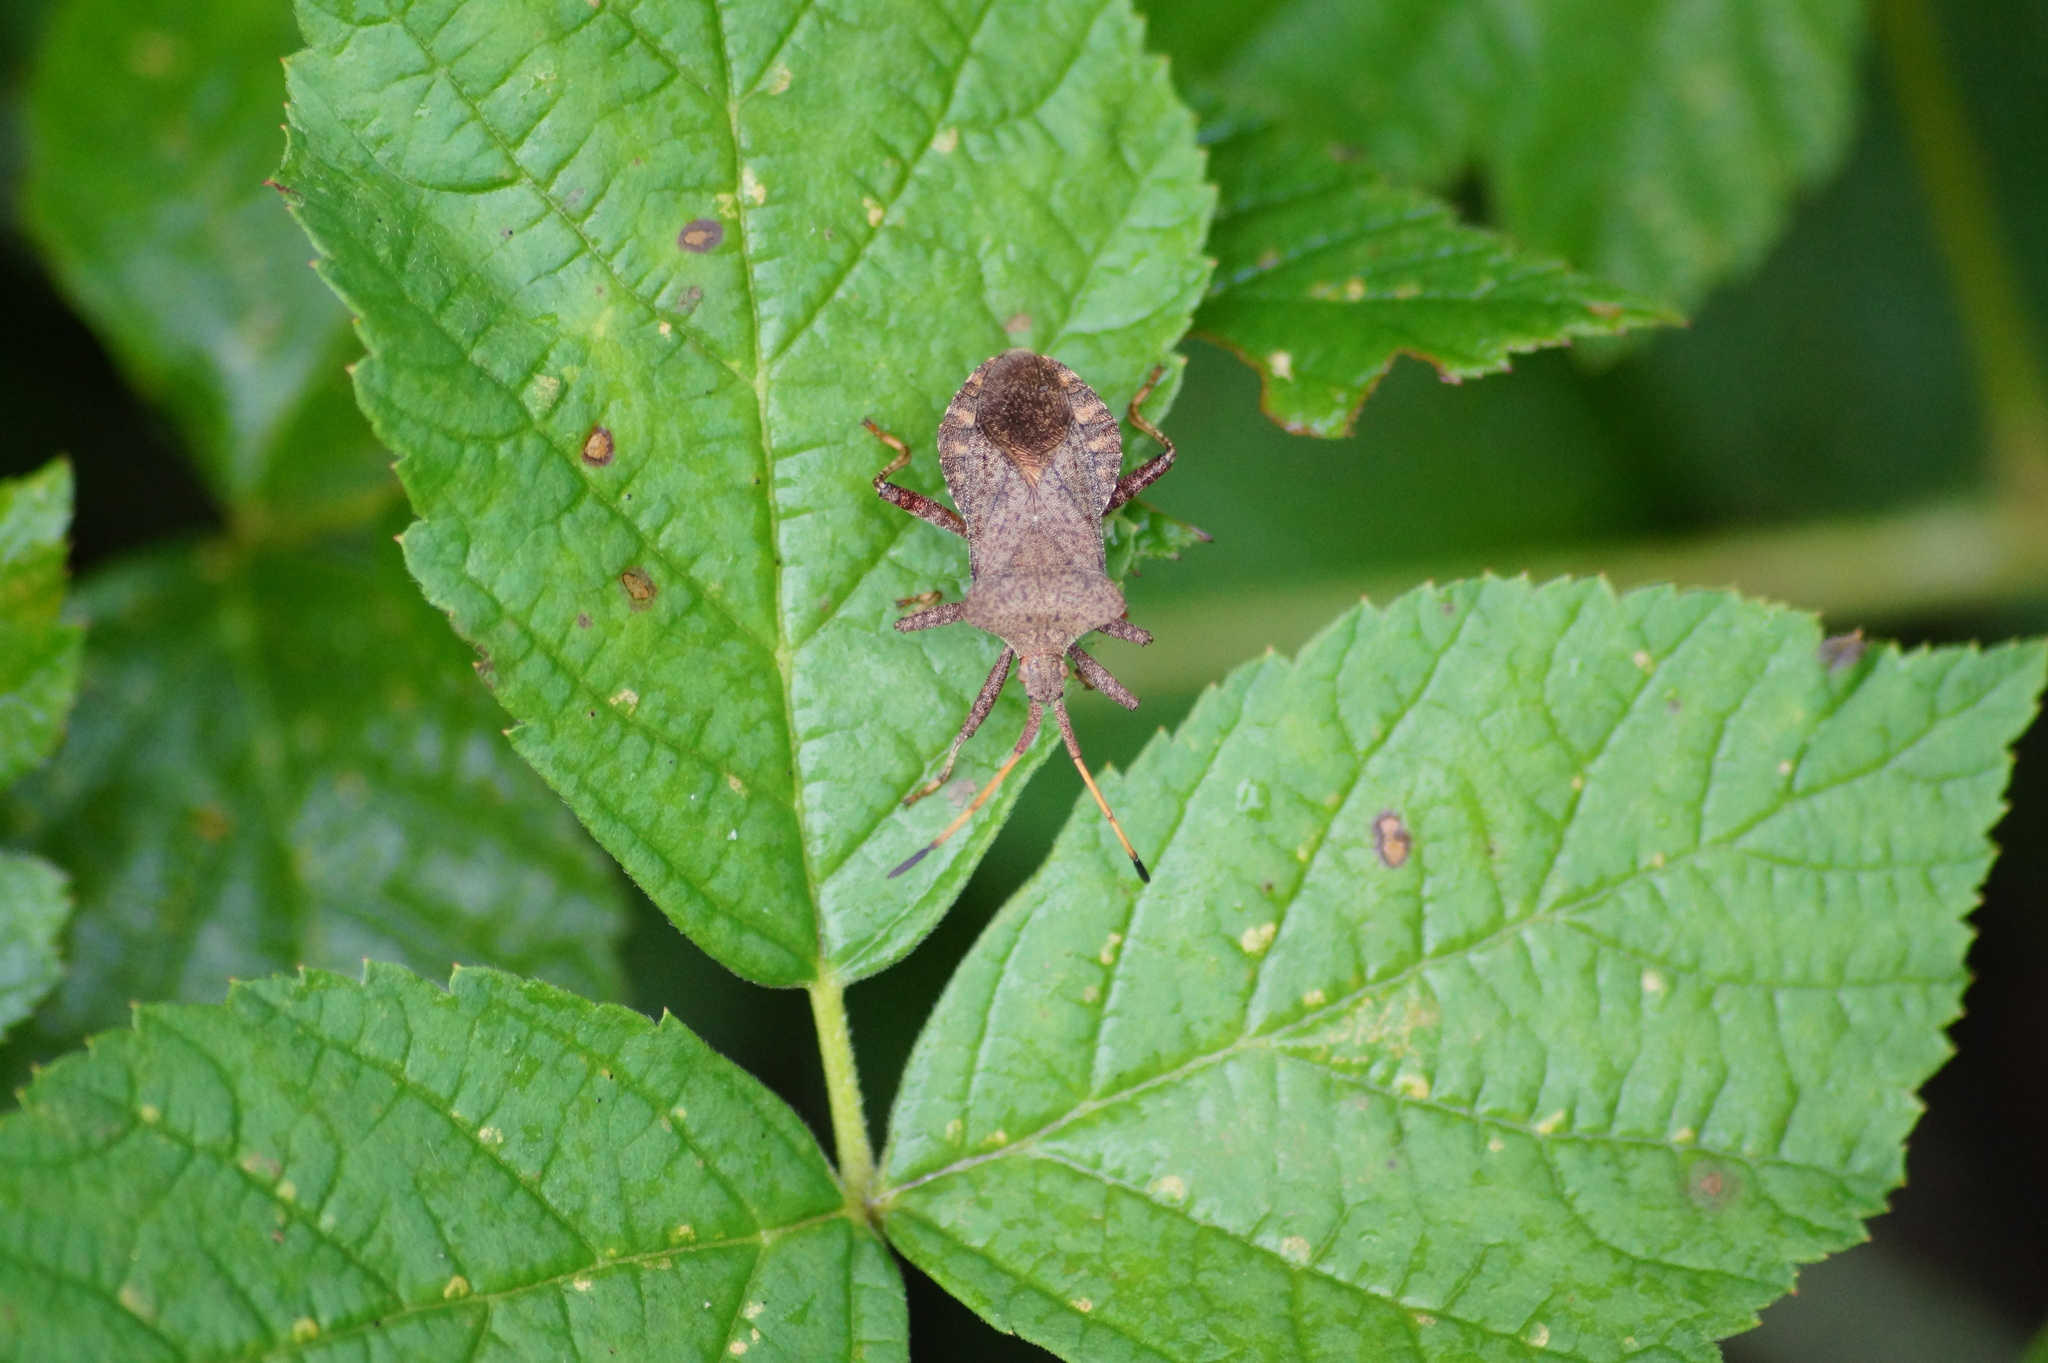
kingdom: Animalia
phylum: Arthropoda
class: Insecta
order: Hemiptera
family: Coreidae
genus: Coreus
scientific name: Coreus marginatus
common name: Dock bug
